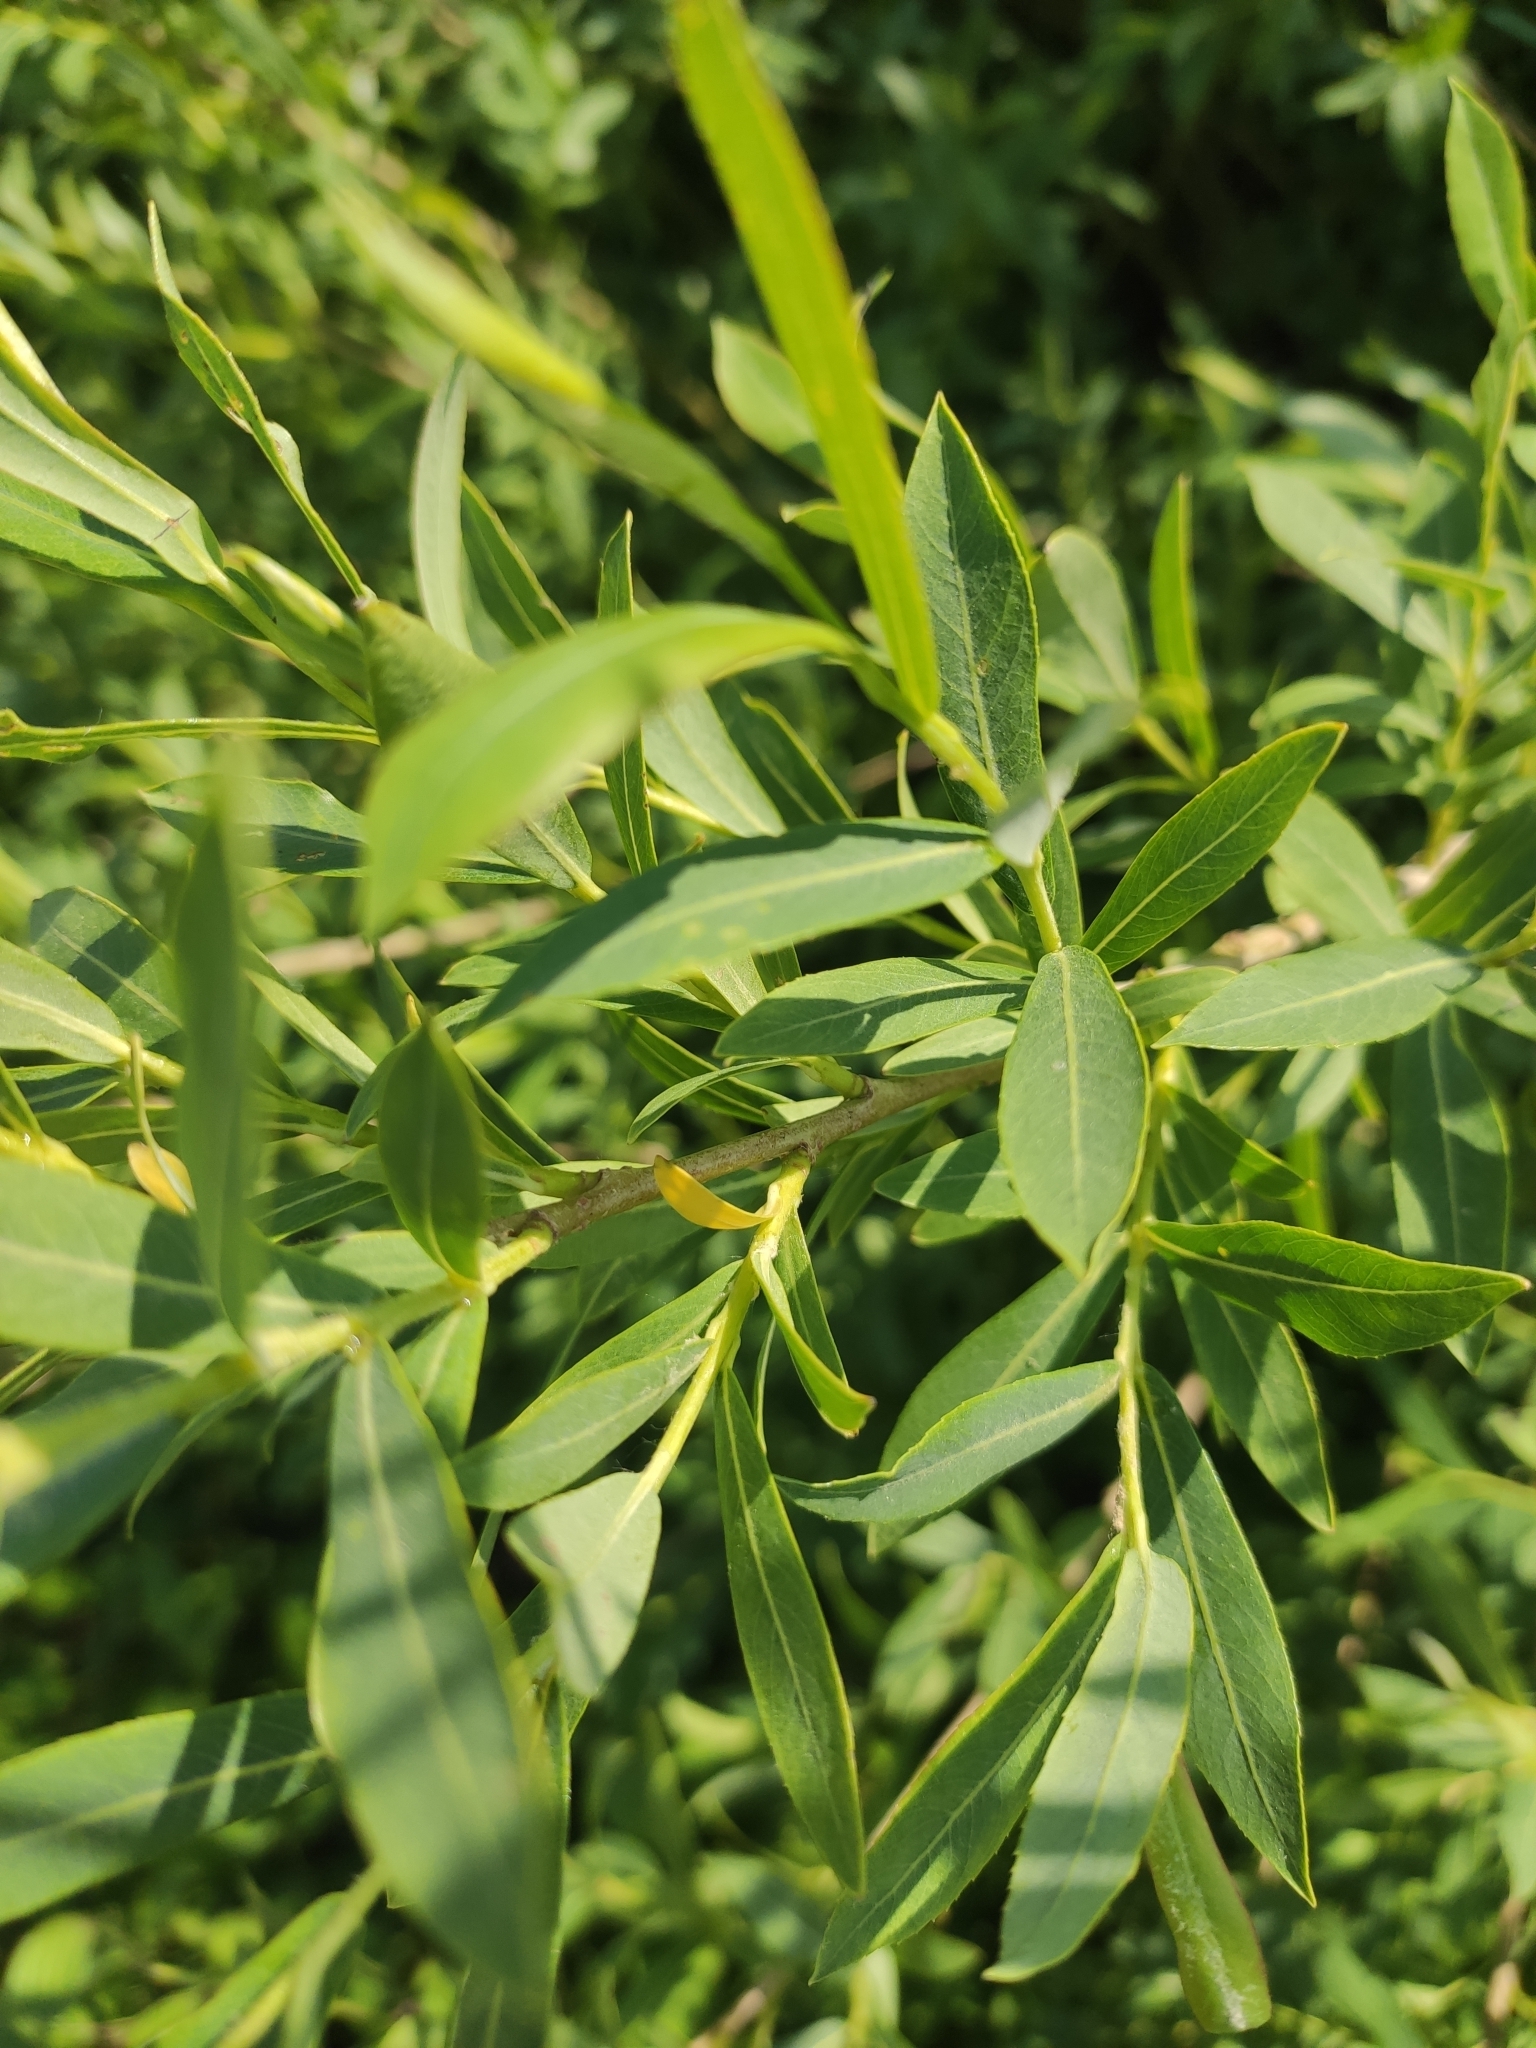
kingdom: Plantae
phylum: Tracheophyta
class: Magnoliopsida
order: Malpighiales
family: Salicaceae
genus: Salix
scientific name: Salix purpurea
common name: Purple willow
